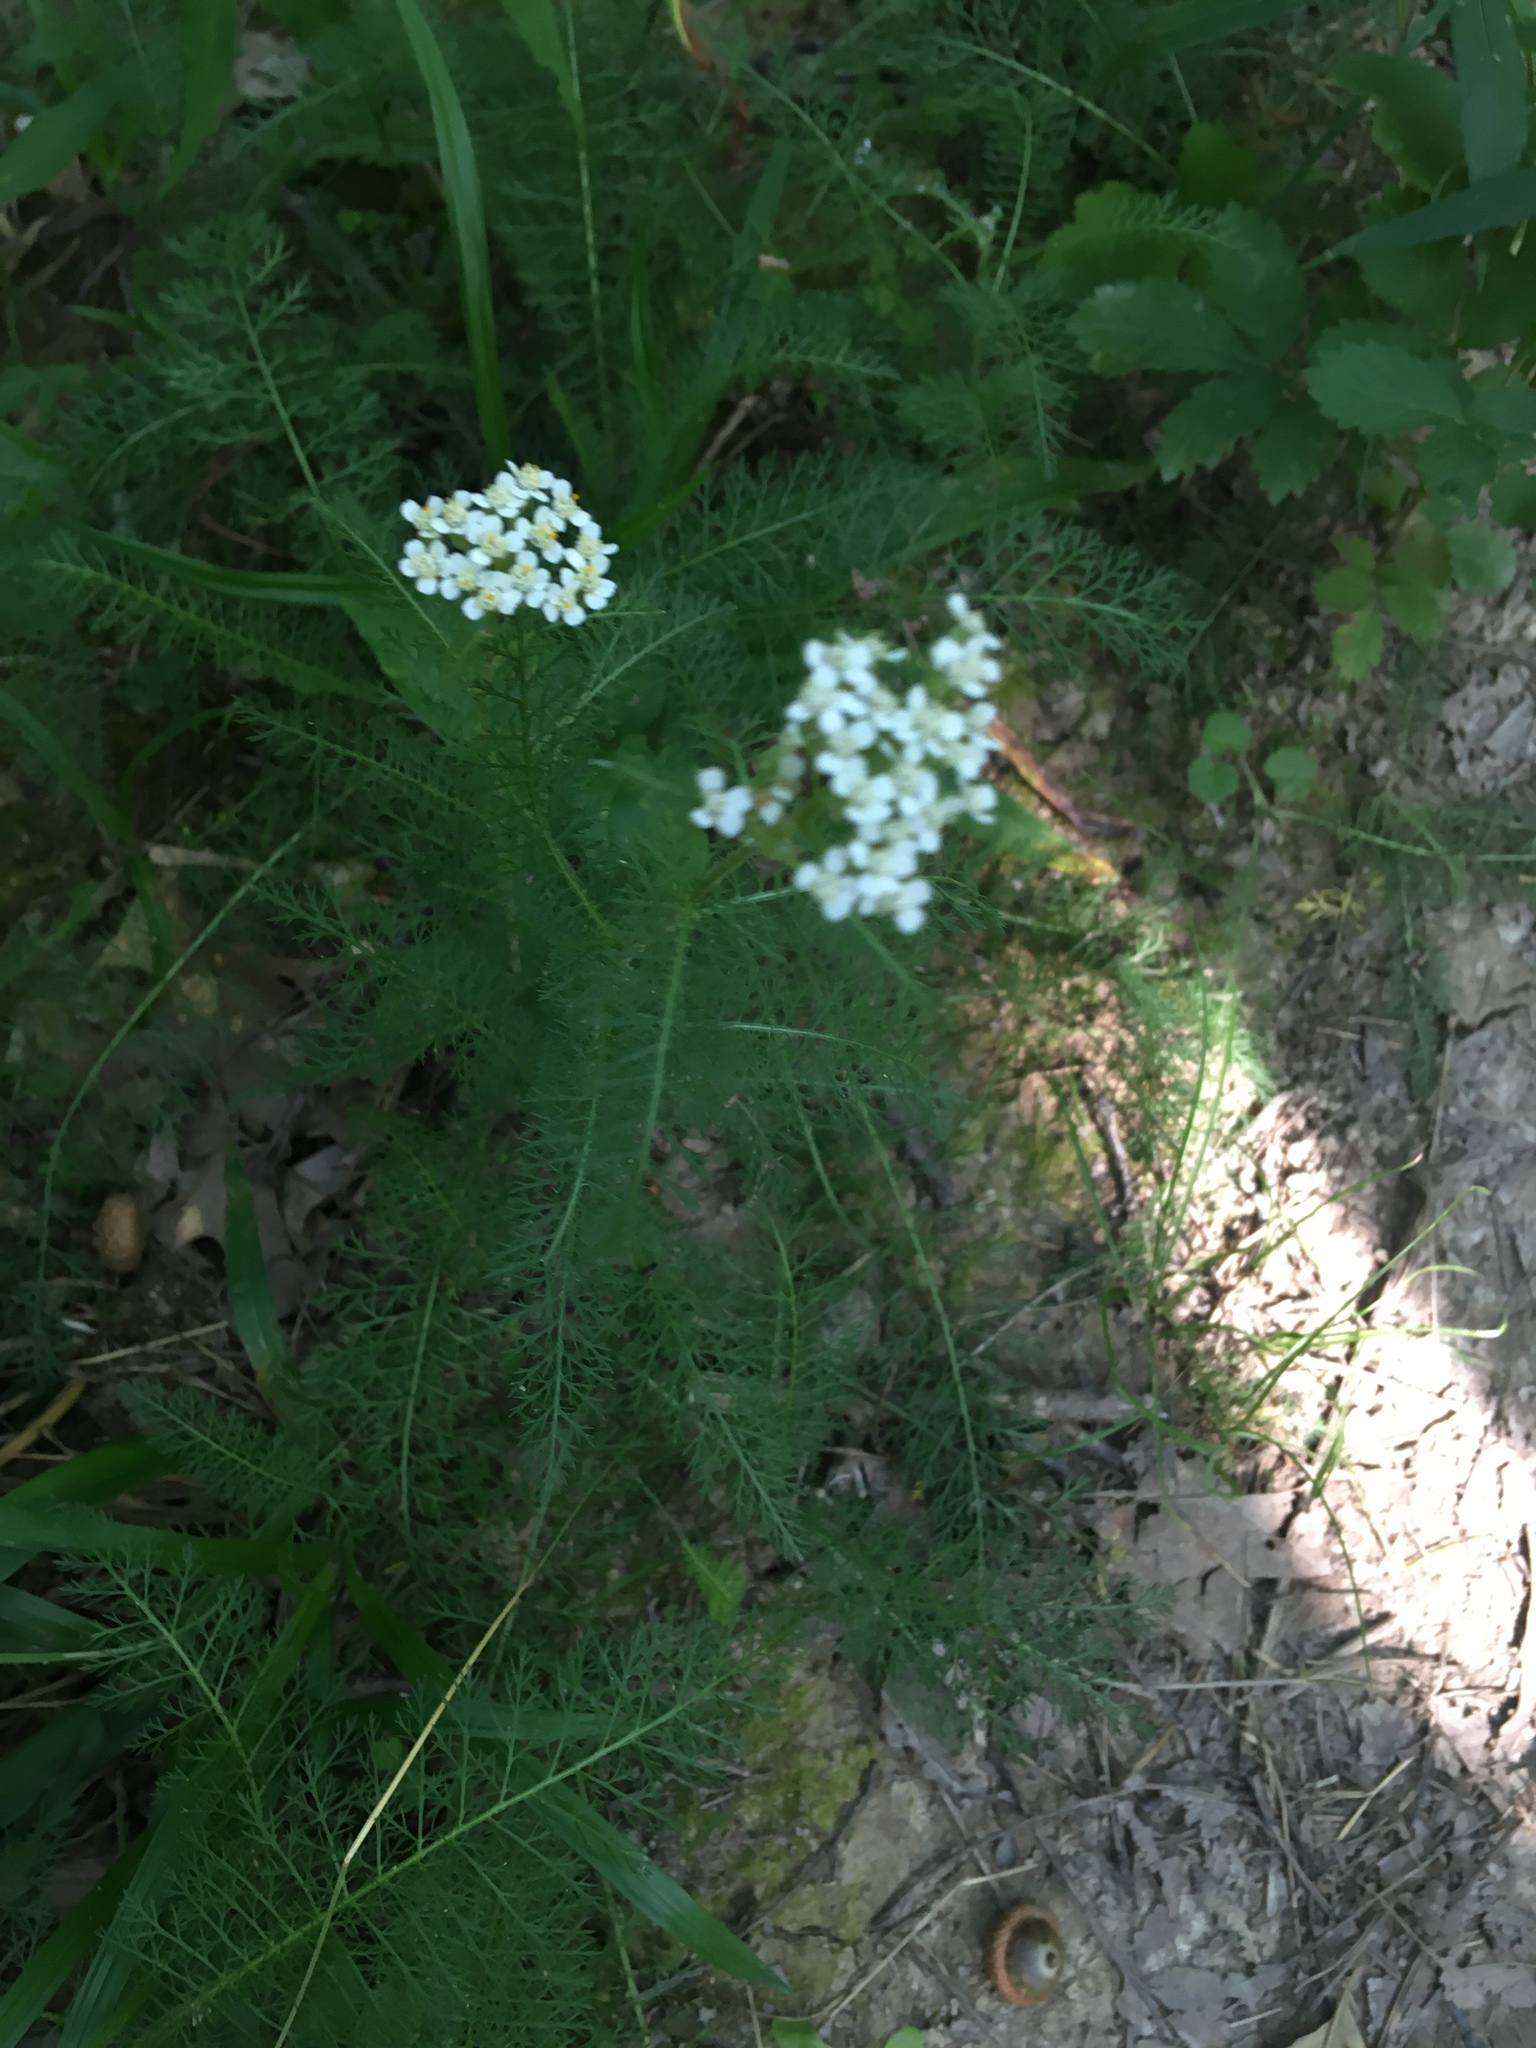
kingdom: Plantae
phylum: Tracheophyta
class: Magnoliopsida
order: Asterales
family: Asteraceae
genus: Achillea
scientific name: Achillea millefolium
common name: Yarrow
